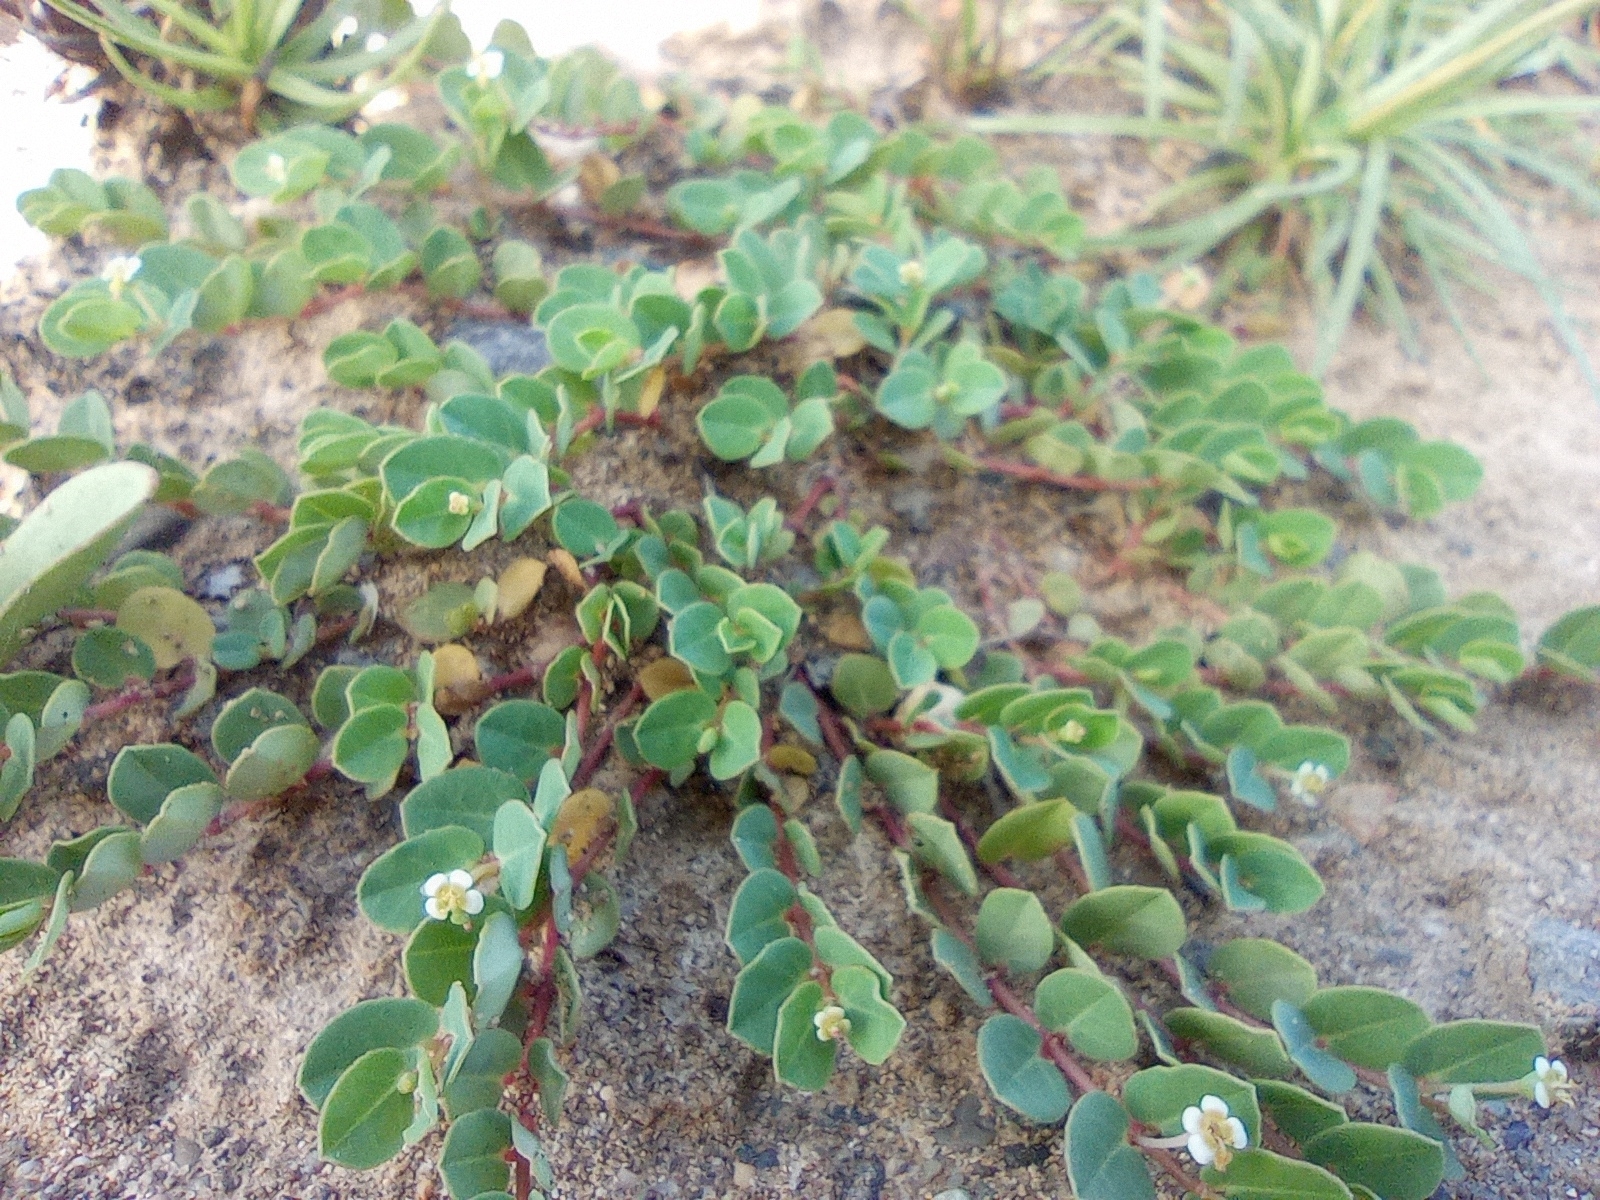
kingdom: Plantae
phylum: Tracheophyta
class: Magnoliopsida
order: Malpighiales
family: Euphorbiaceae
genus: Euphorbia
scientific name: Euphorbia garanbiensis
